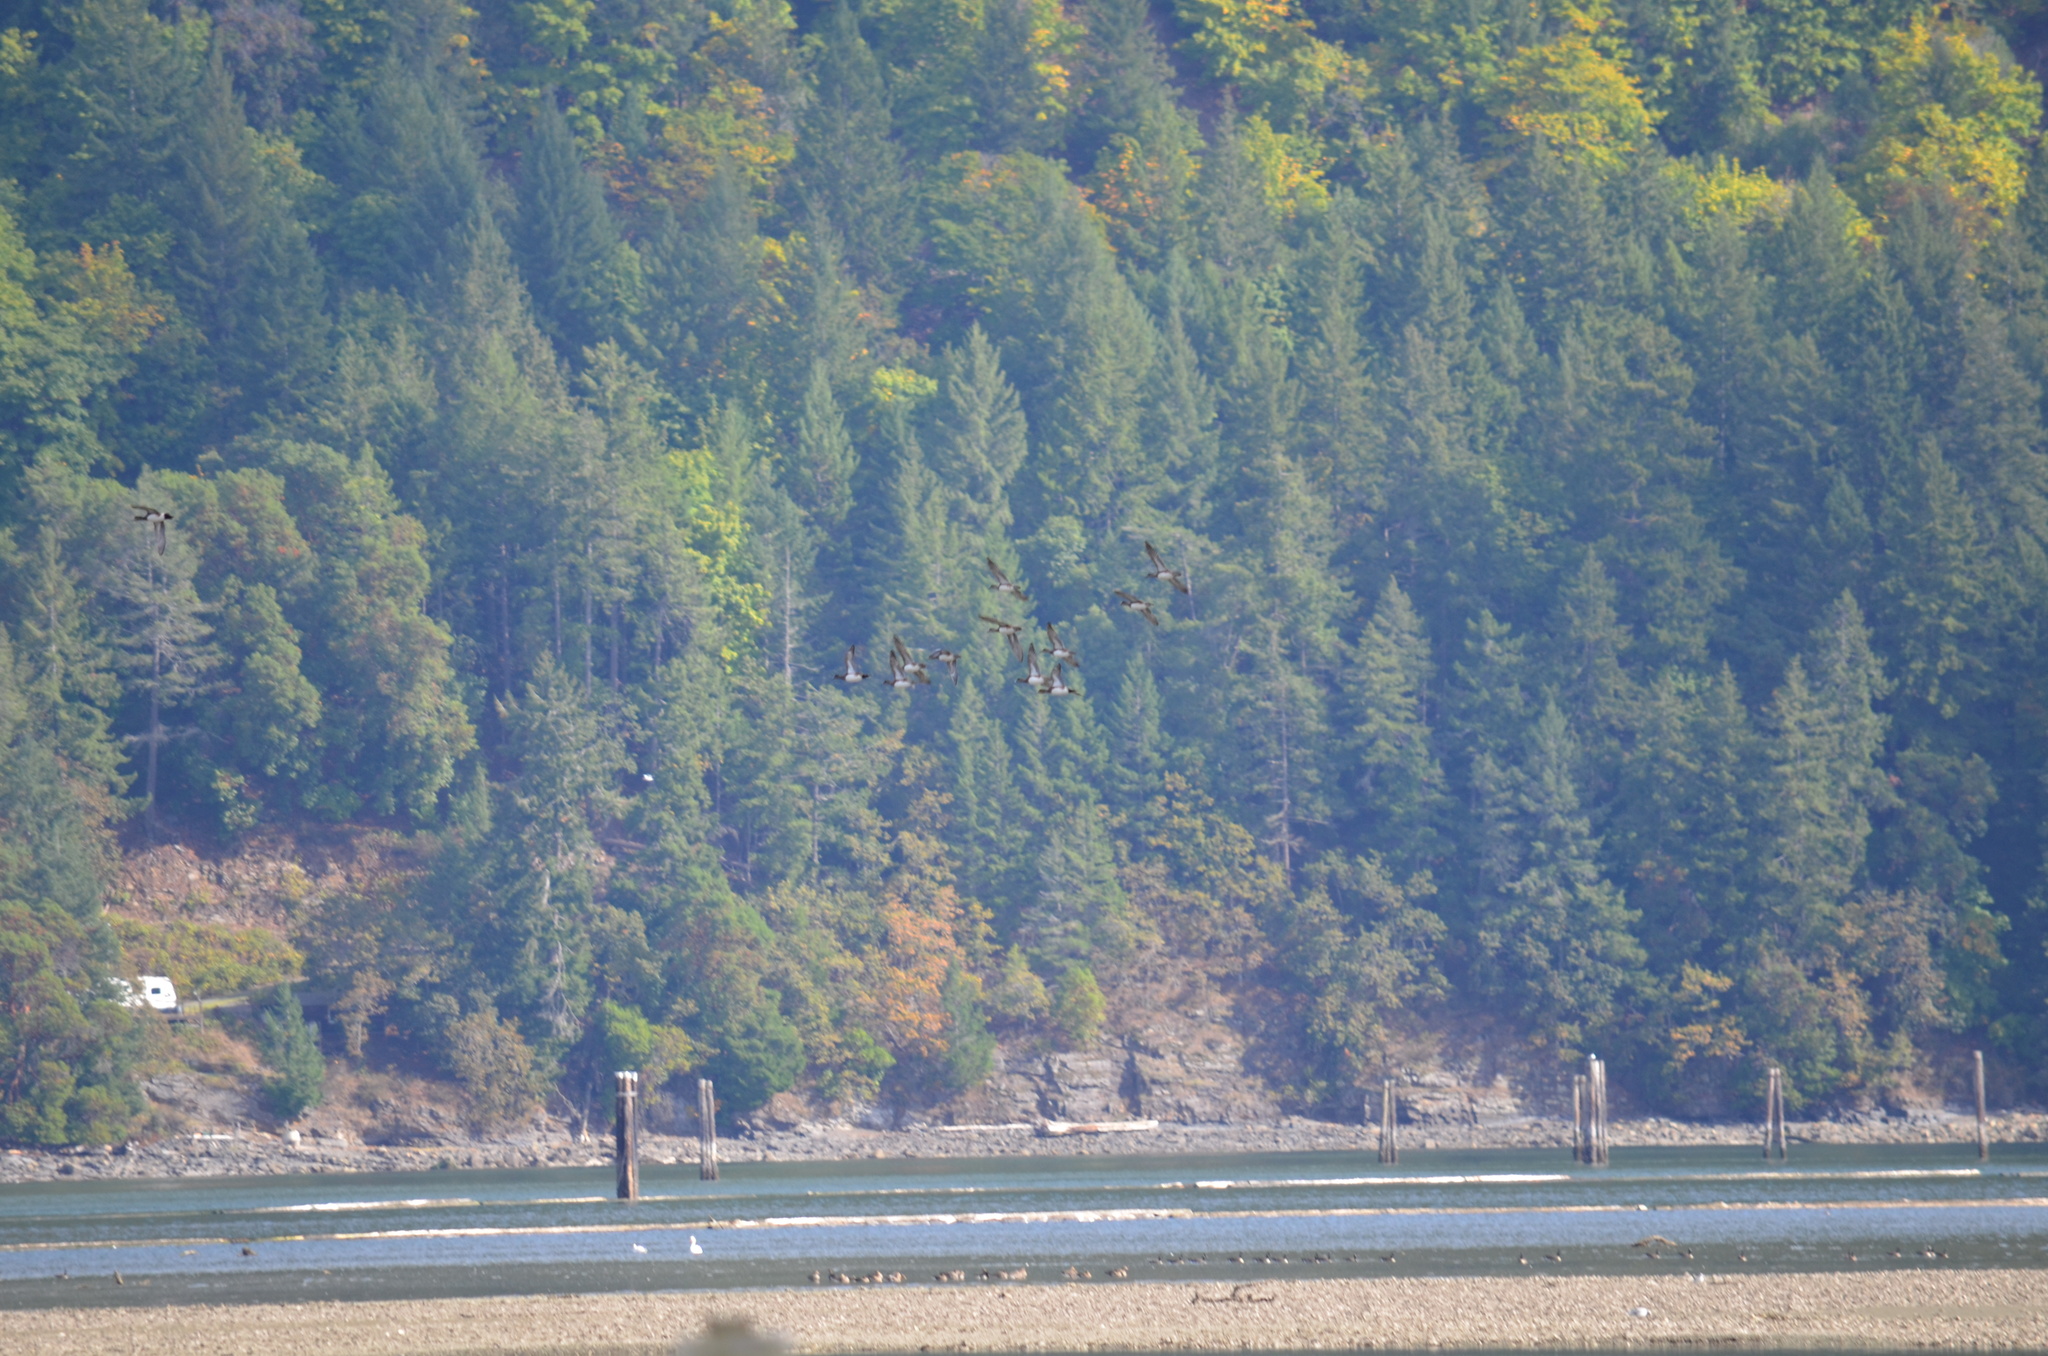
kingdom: Animalia
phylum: Chordata
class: Aves
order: Anseriformes
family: Anatidae
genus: Mareca
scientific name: Mareca americana
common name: American wigeon
